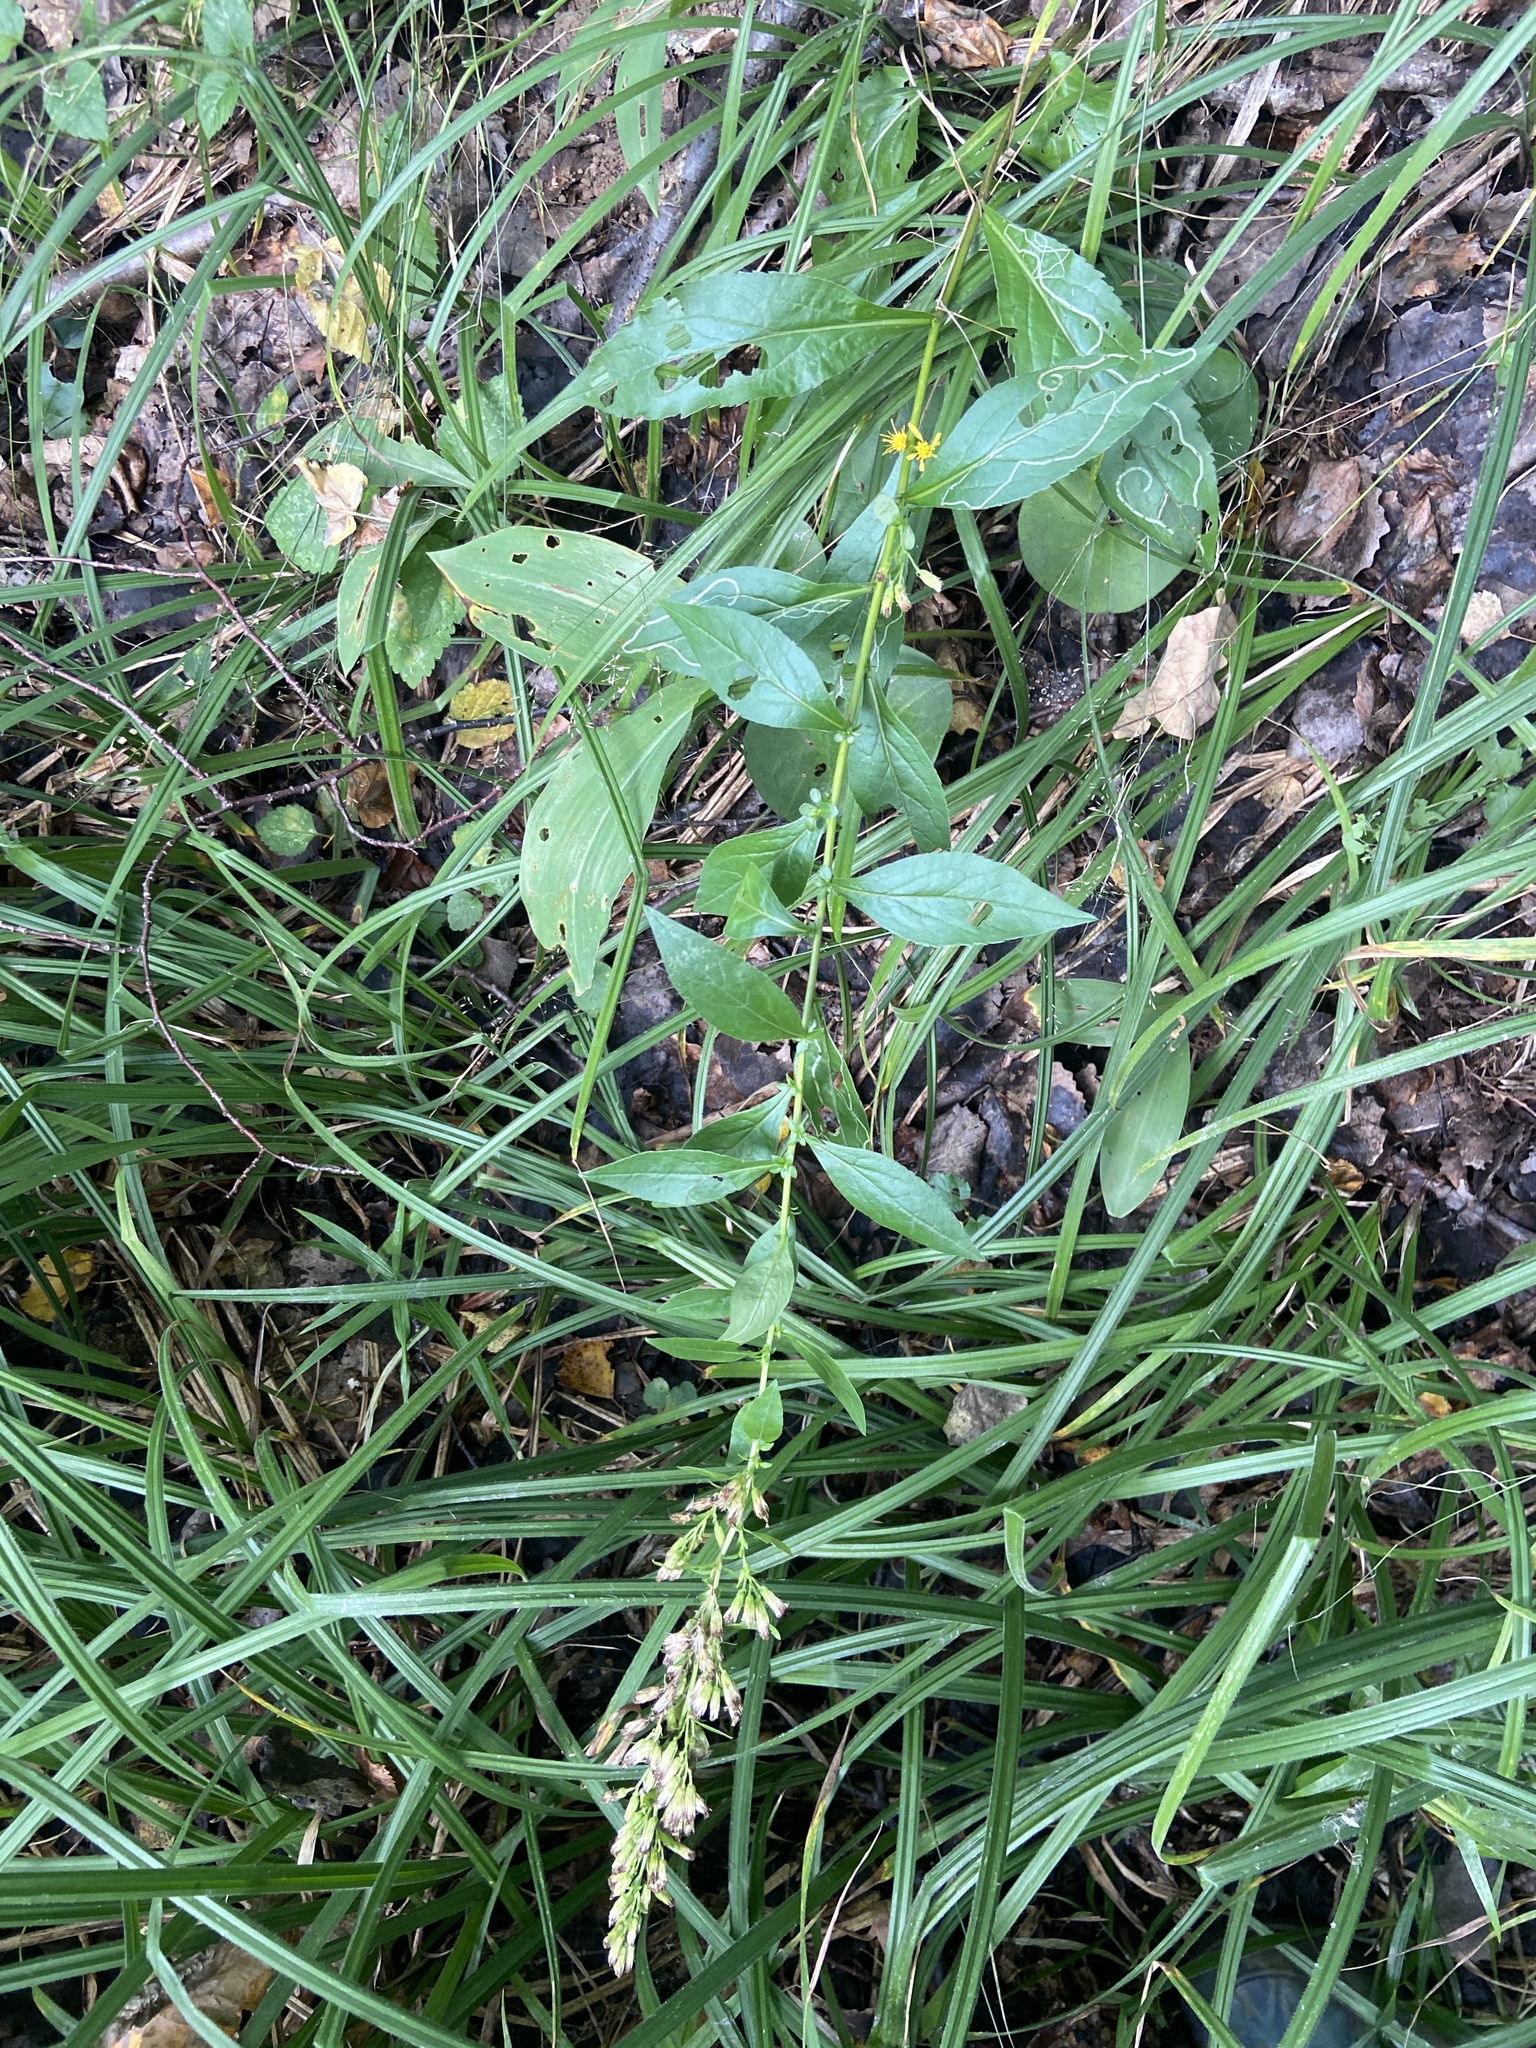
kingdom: Plantae
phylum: Tracheophyta
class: Magnoliopsida
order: Asterales
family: Asteraceae
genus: Solidago
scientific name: Solidago virgaurea
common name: Goldenrod
